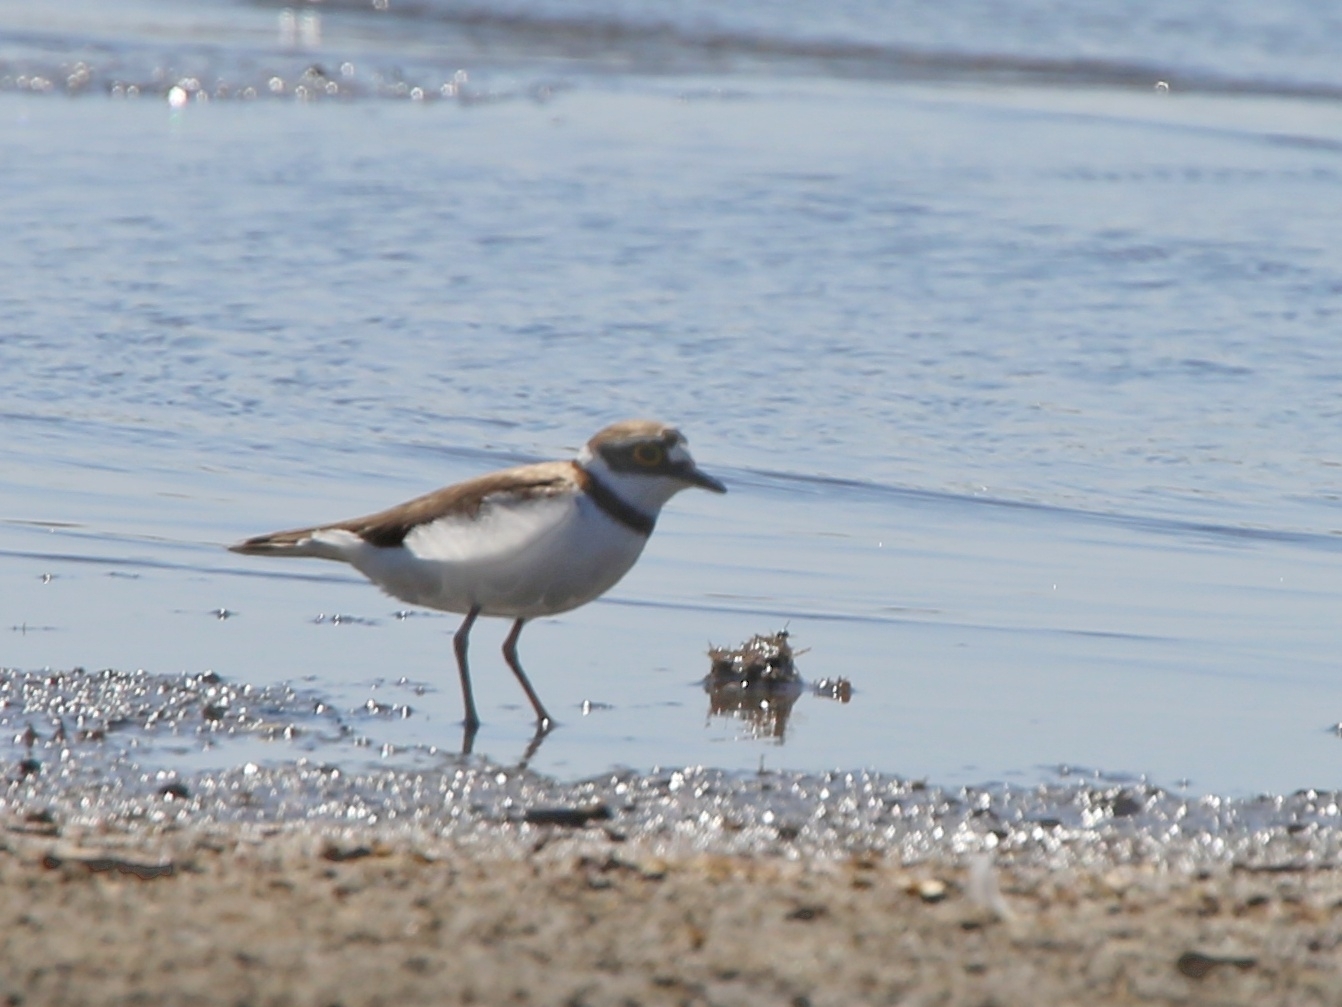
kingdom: Animalia
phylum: Chordata
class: Aves
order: Charadriiformes
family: Charadriidae
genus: Charadrius
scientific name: Charadrius dubius
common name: Little ringed plover
